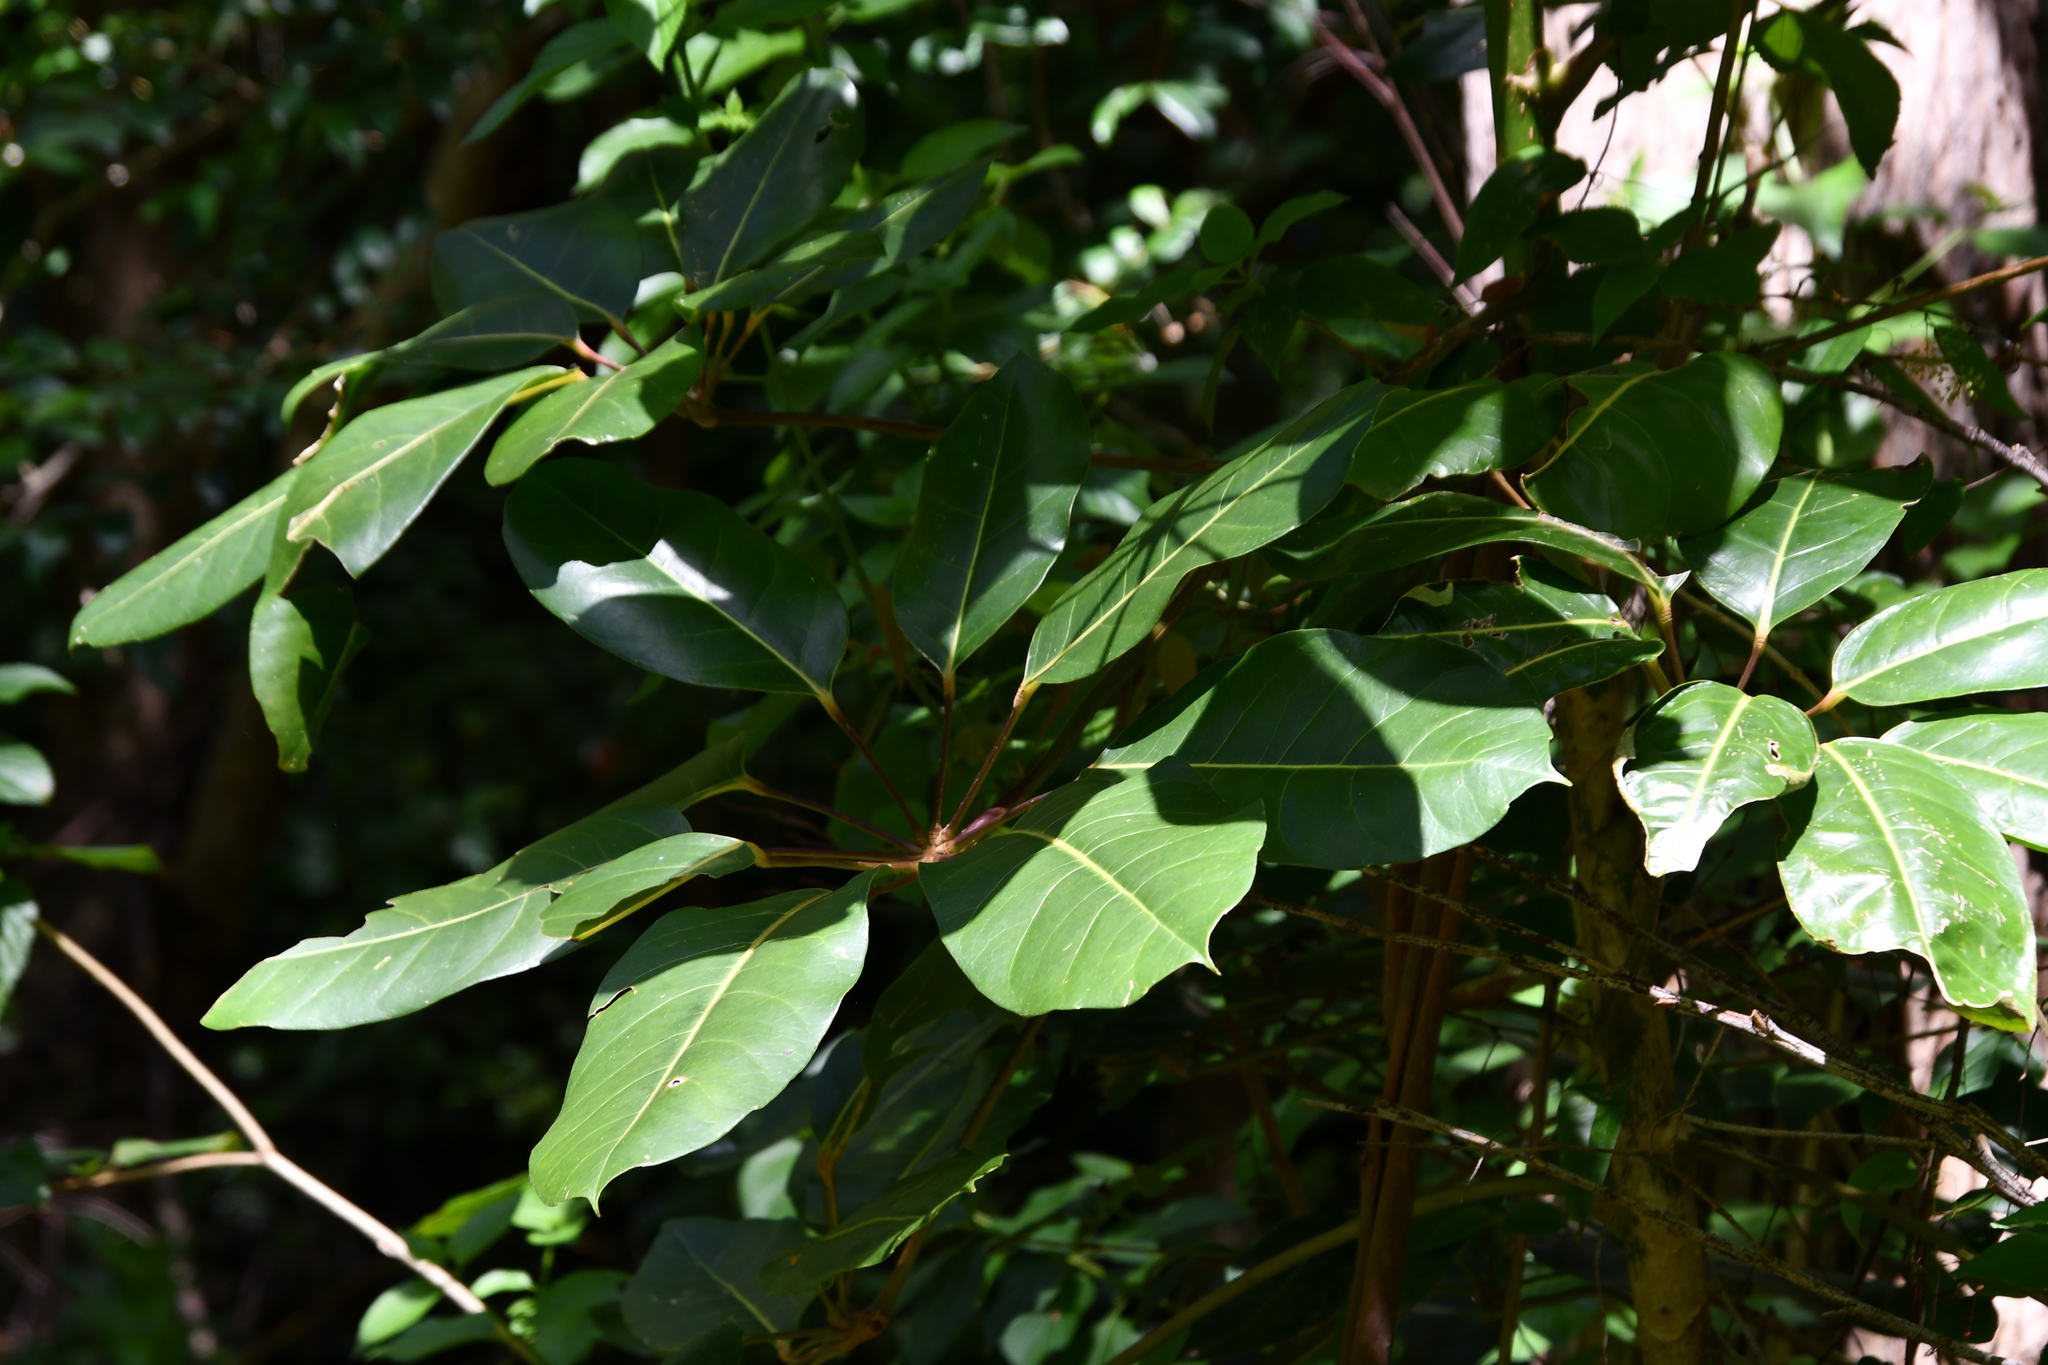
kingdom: Plantae
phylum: Tracheophyta
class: Magnoliopsida
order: Apiales
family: Araliaceae
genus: Heptapleurum
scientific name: Heptapleurum actinophyllum
